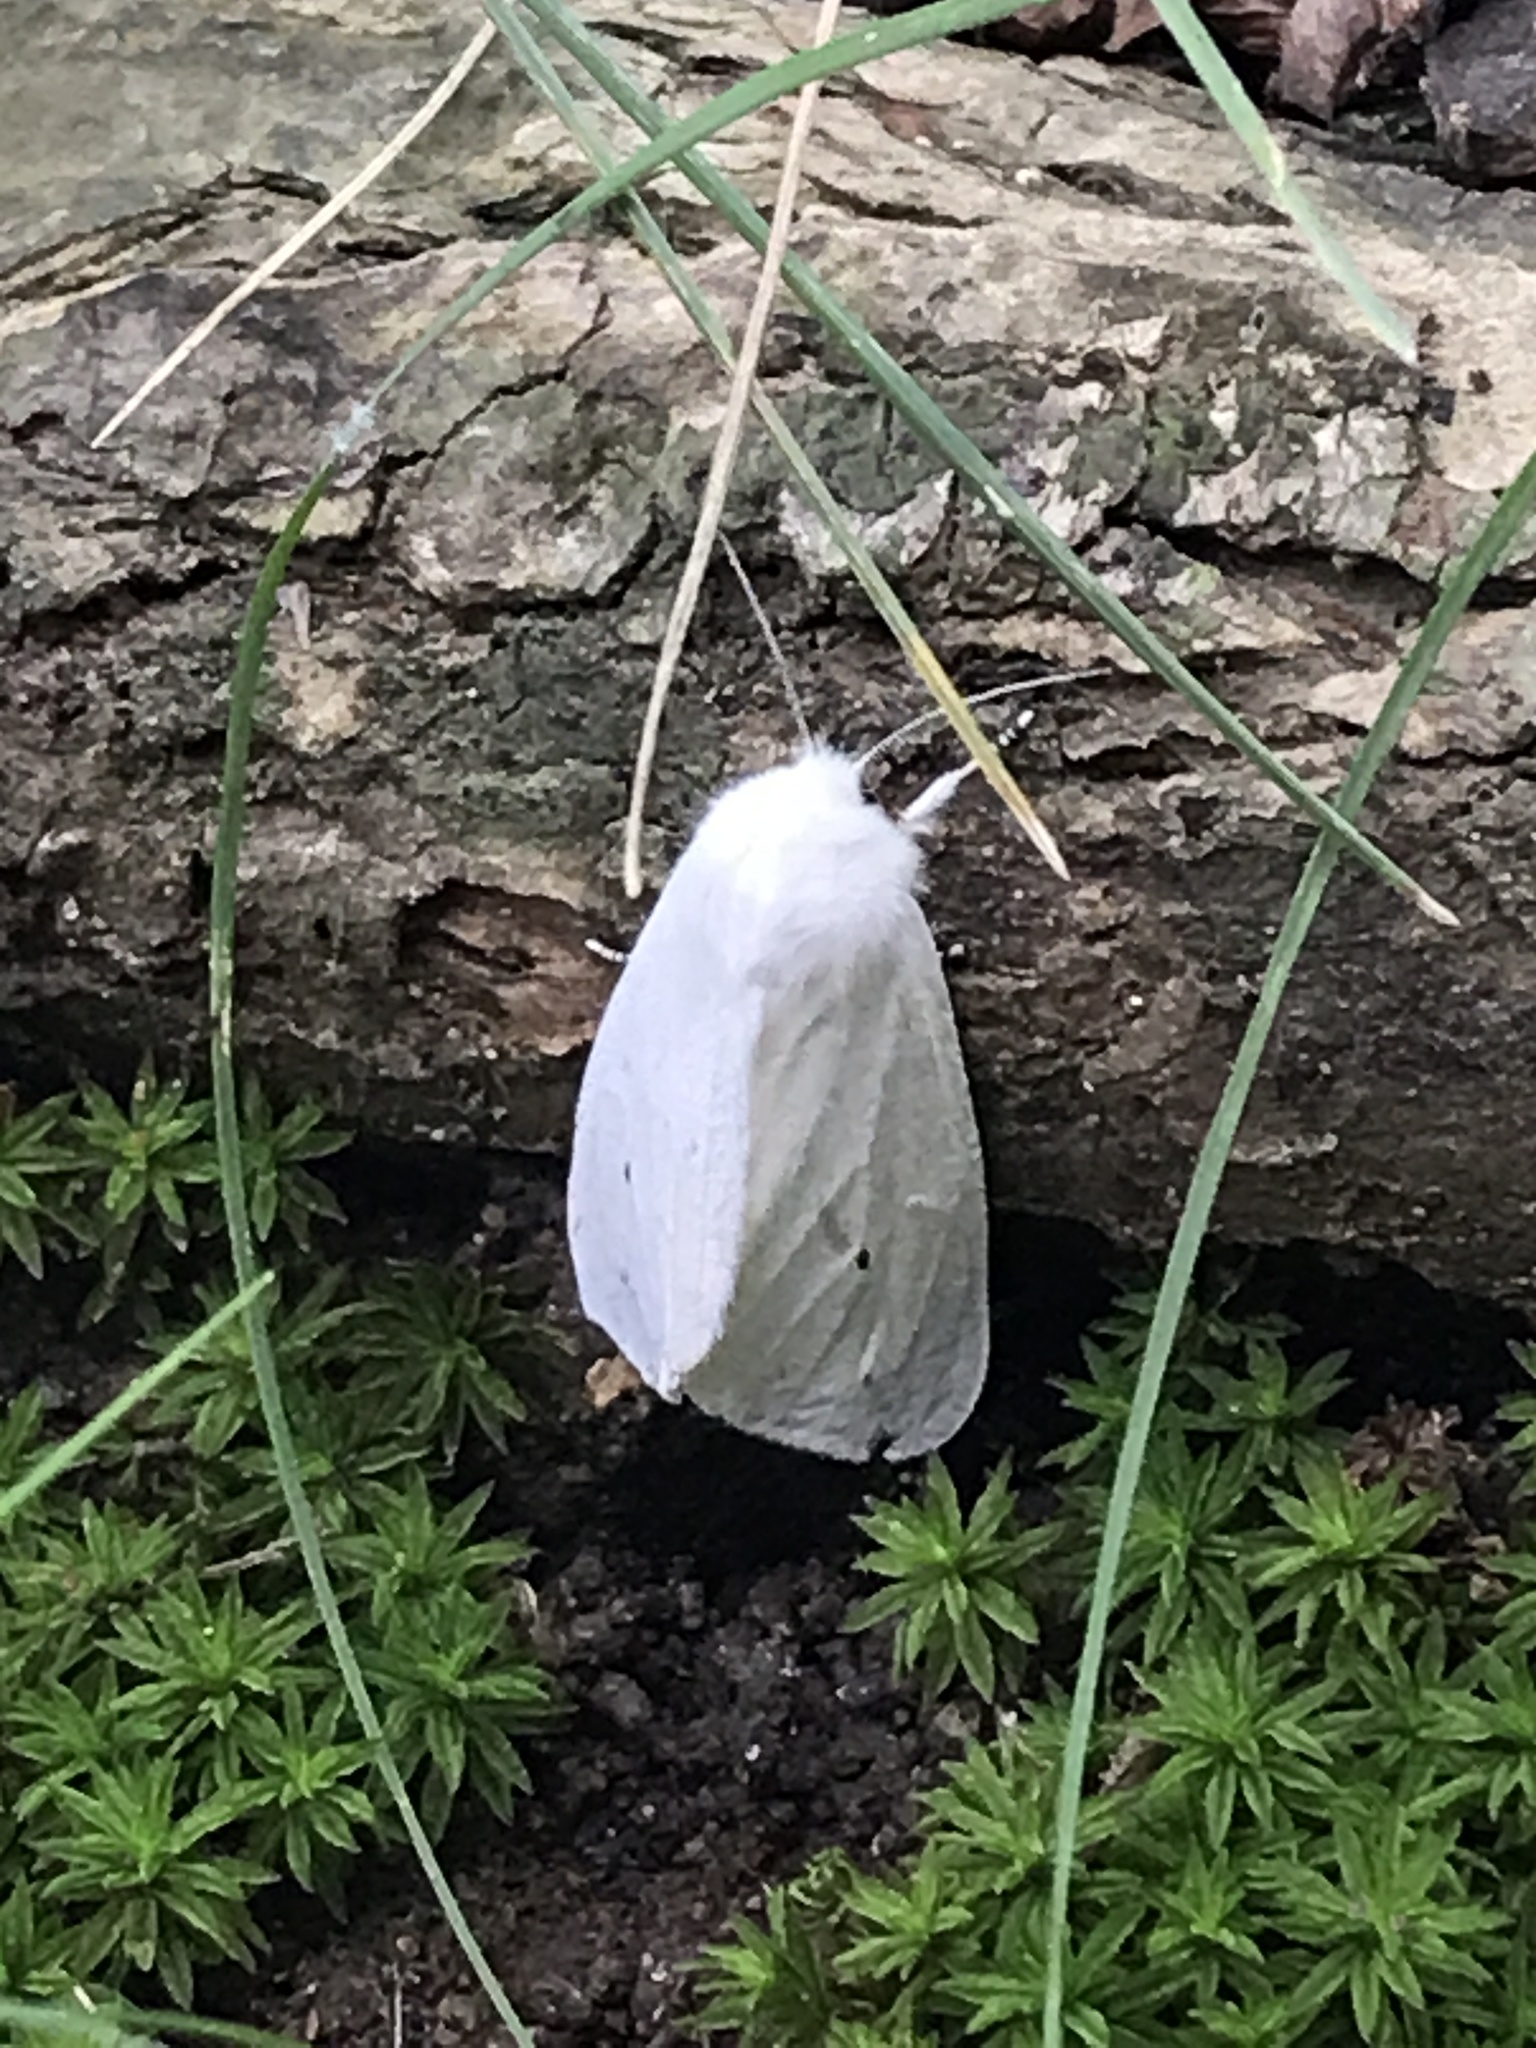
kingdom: Animalia
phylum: Arthropoda
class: Insecta
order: Lepidoptera
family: Erebidae
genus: Spilosoma
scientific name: Spilosoma virginica
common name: Virginia tiger moth
